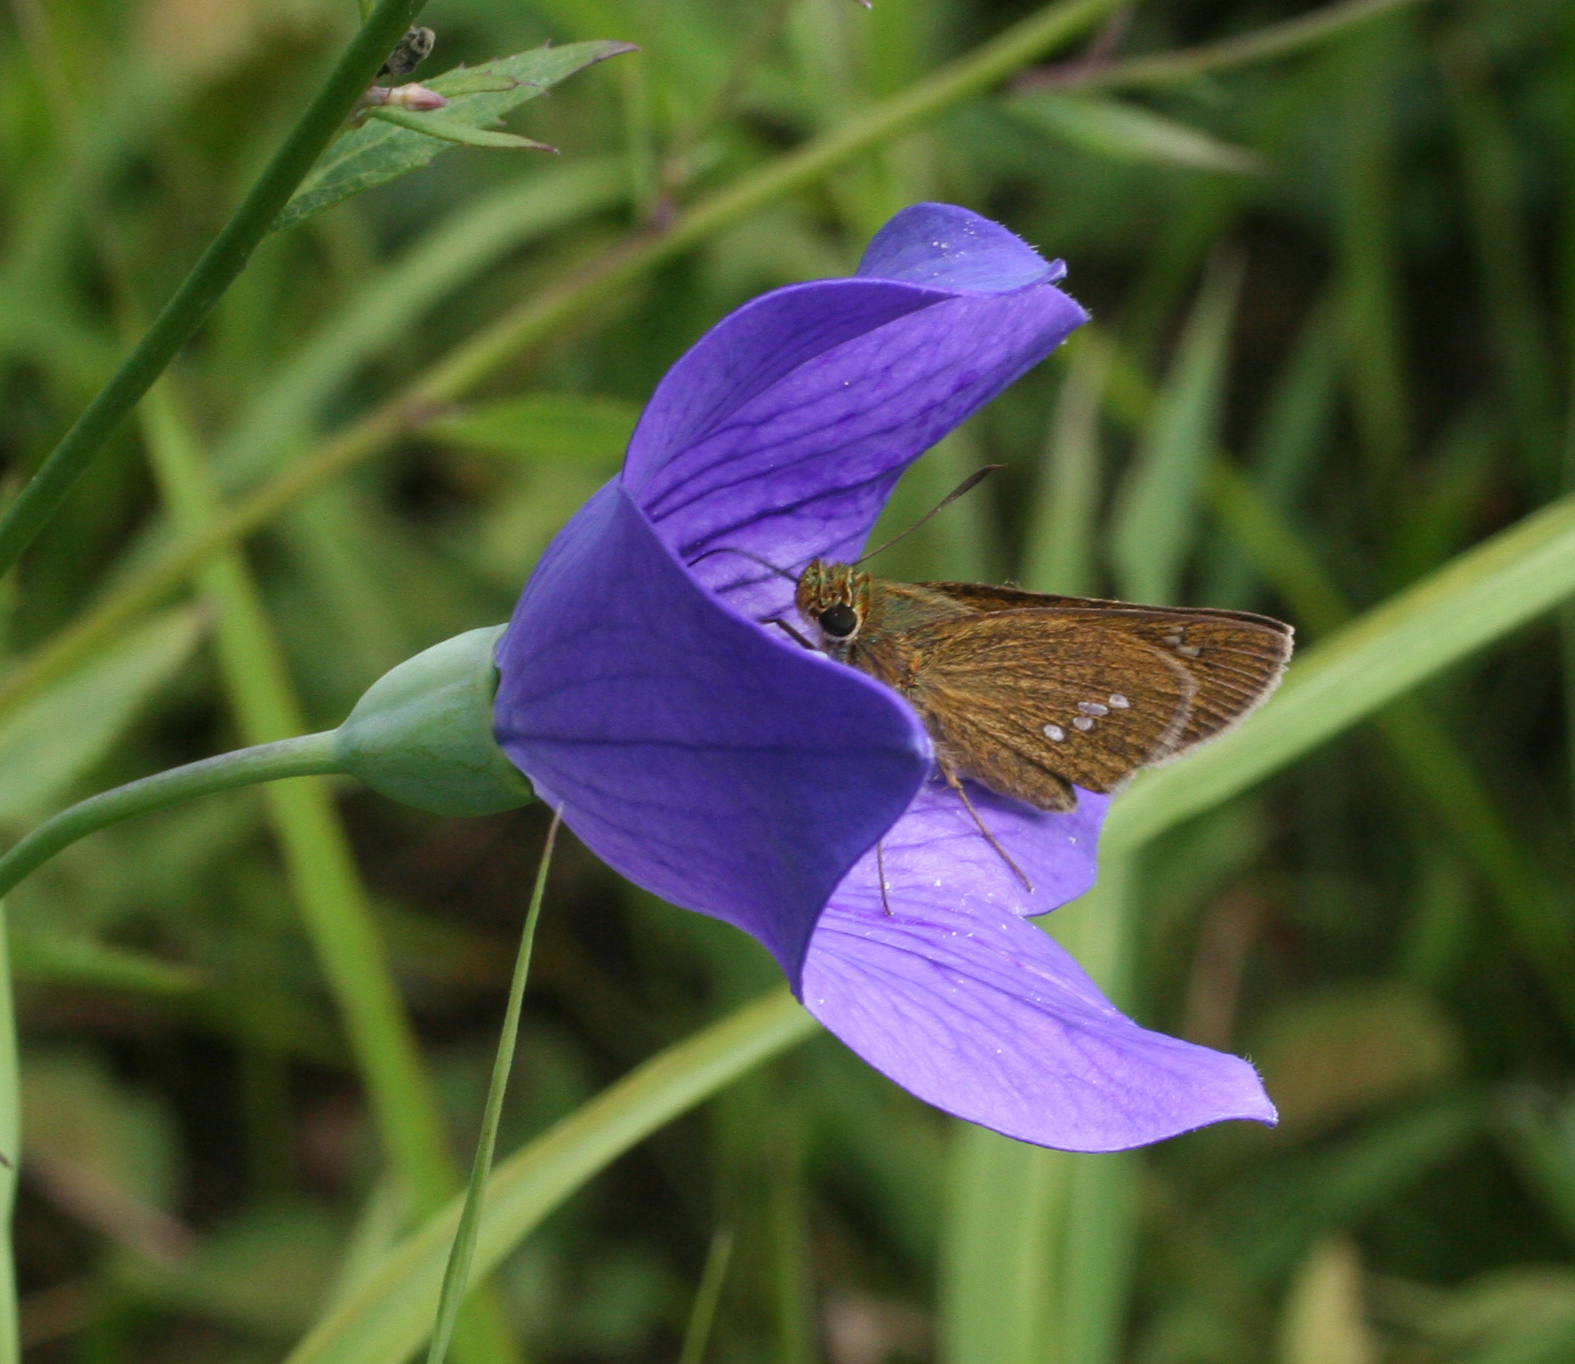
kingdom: Animalia
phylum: Arthropoda
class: Insecta
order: Lepidoptera
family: Hesperiidae
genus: Polytremis
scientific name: Polytremis zina
